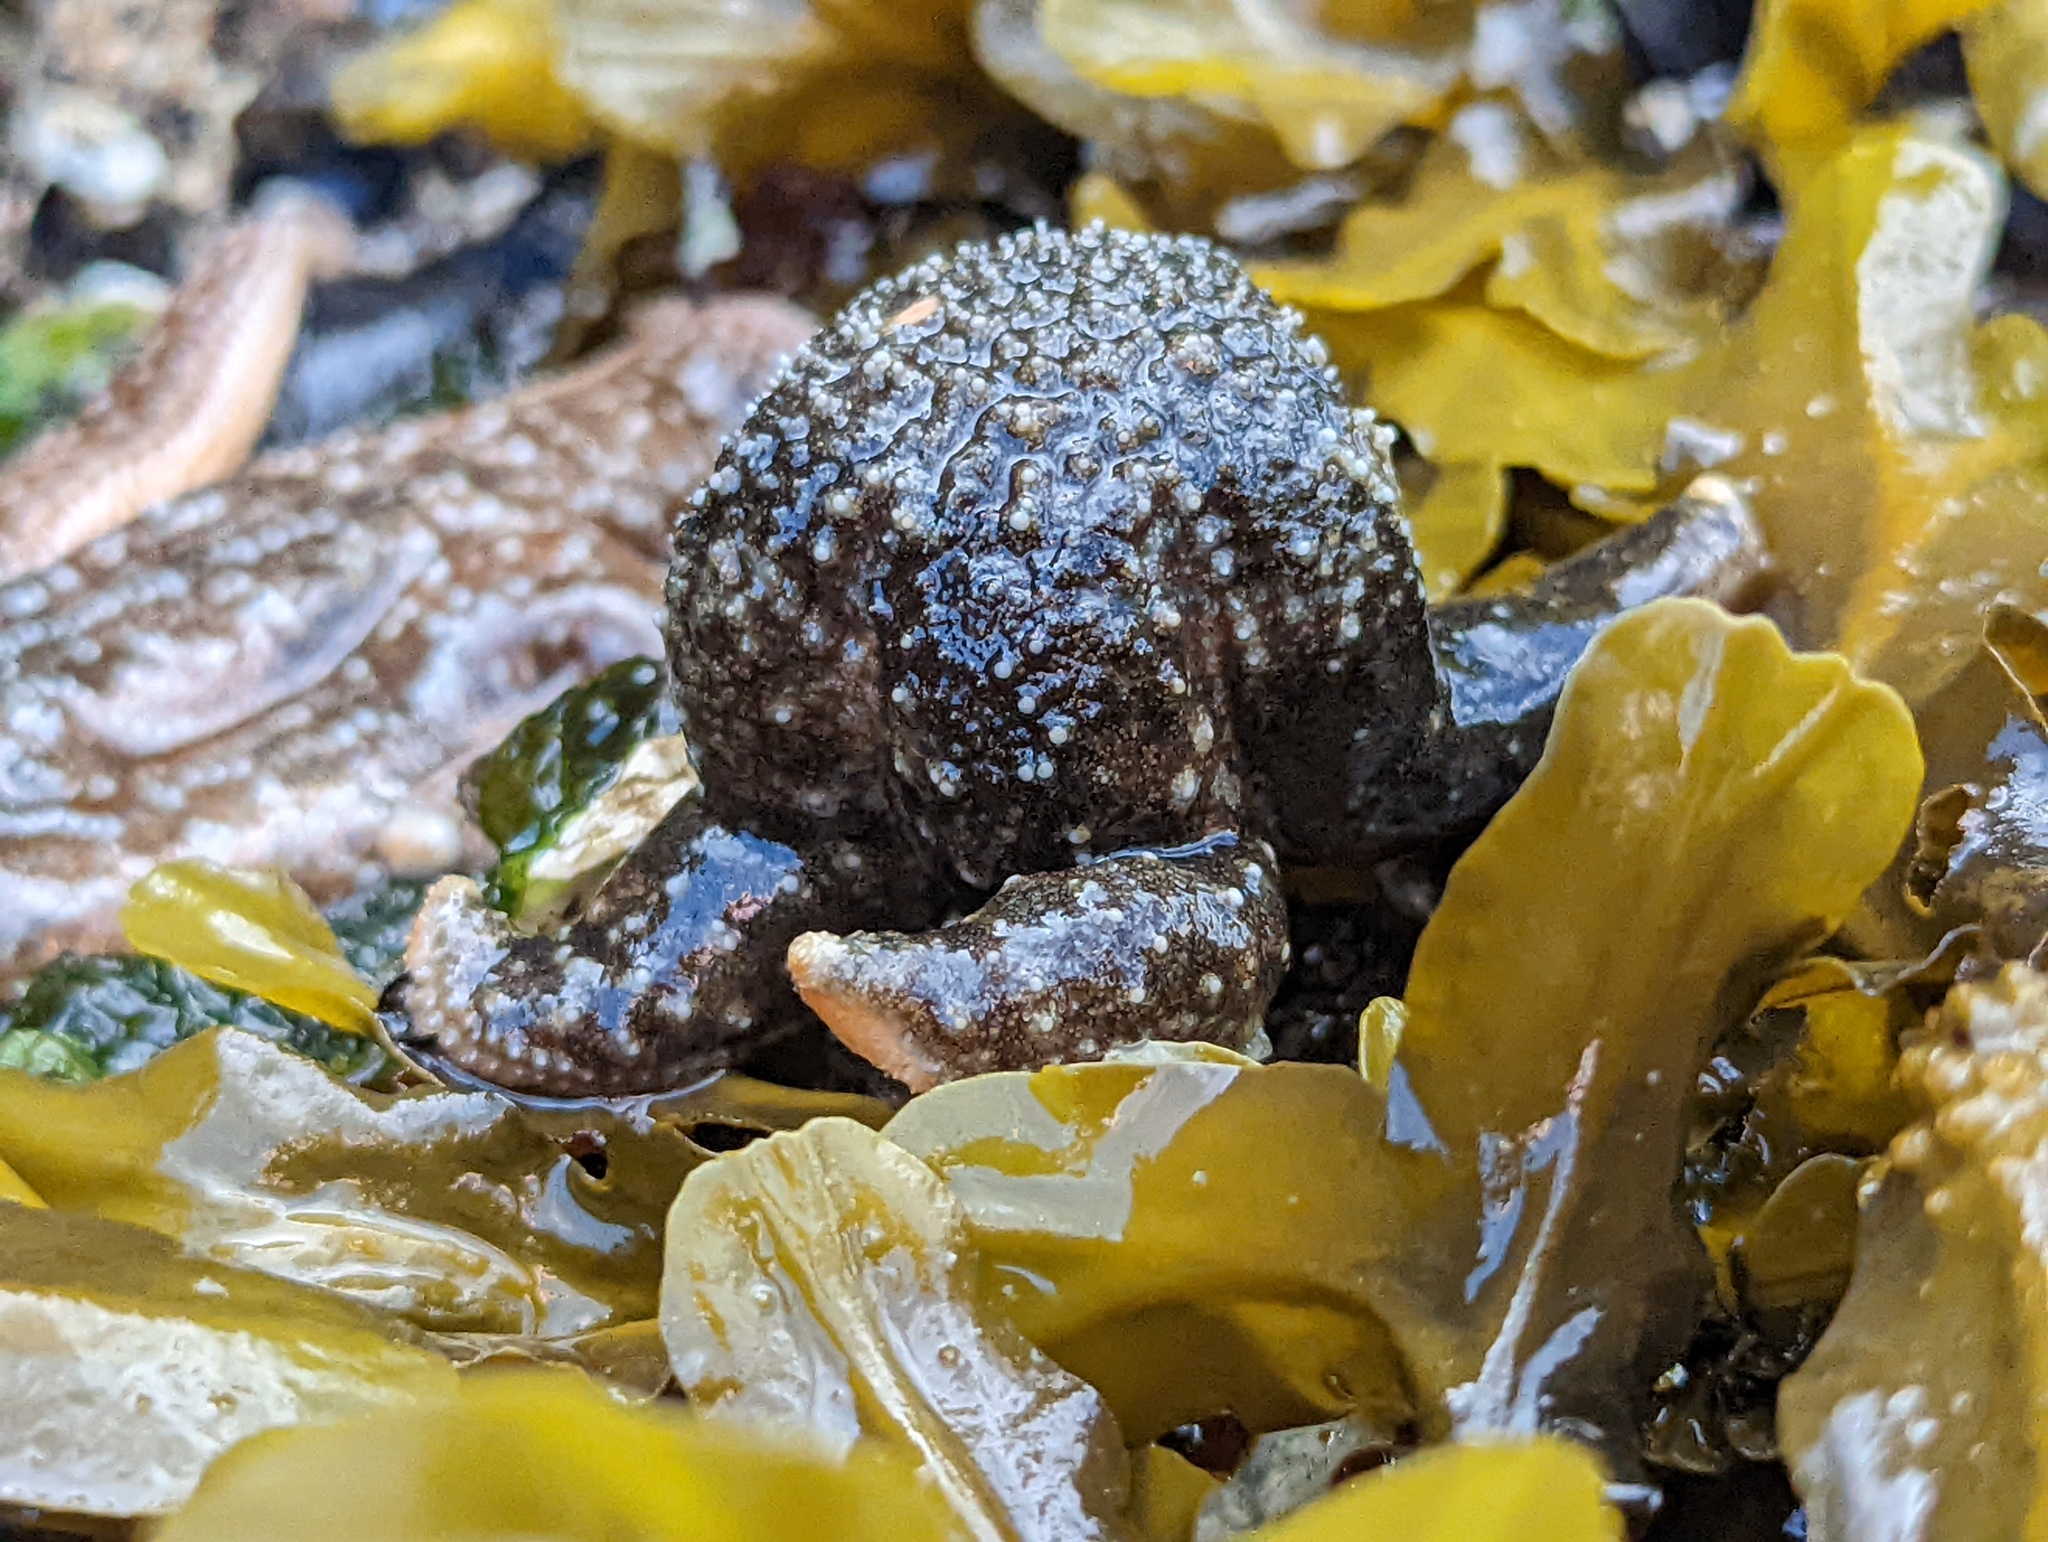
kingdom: Animalia
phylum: Echinodermata
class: Asteroidea
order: Forcipulatida
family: Asteriidae
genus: Evasterias
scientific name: Evasterias troschelii
